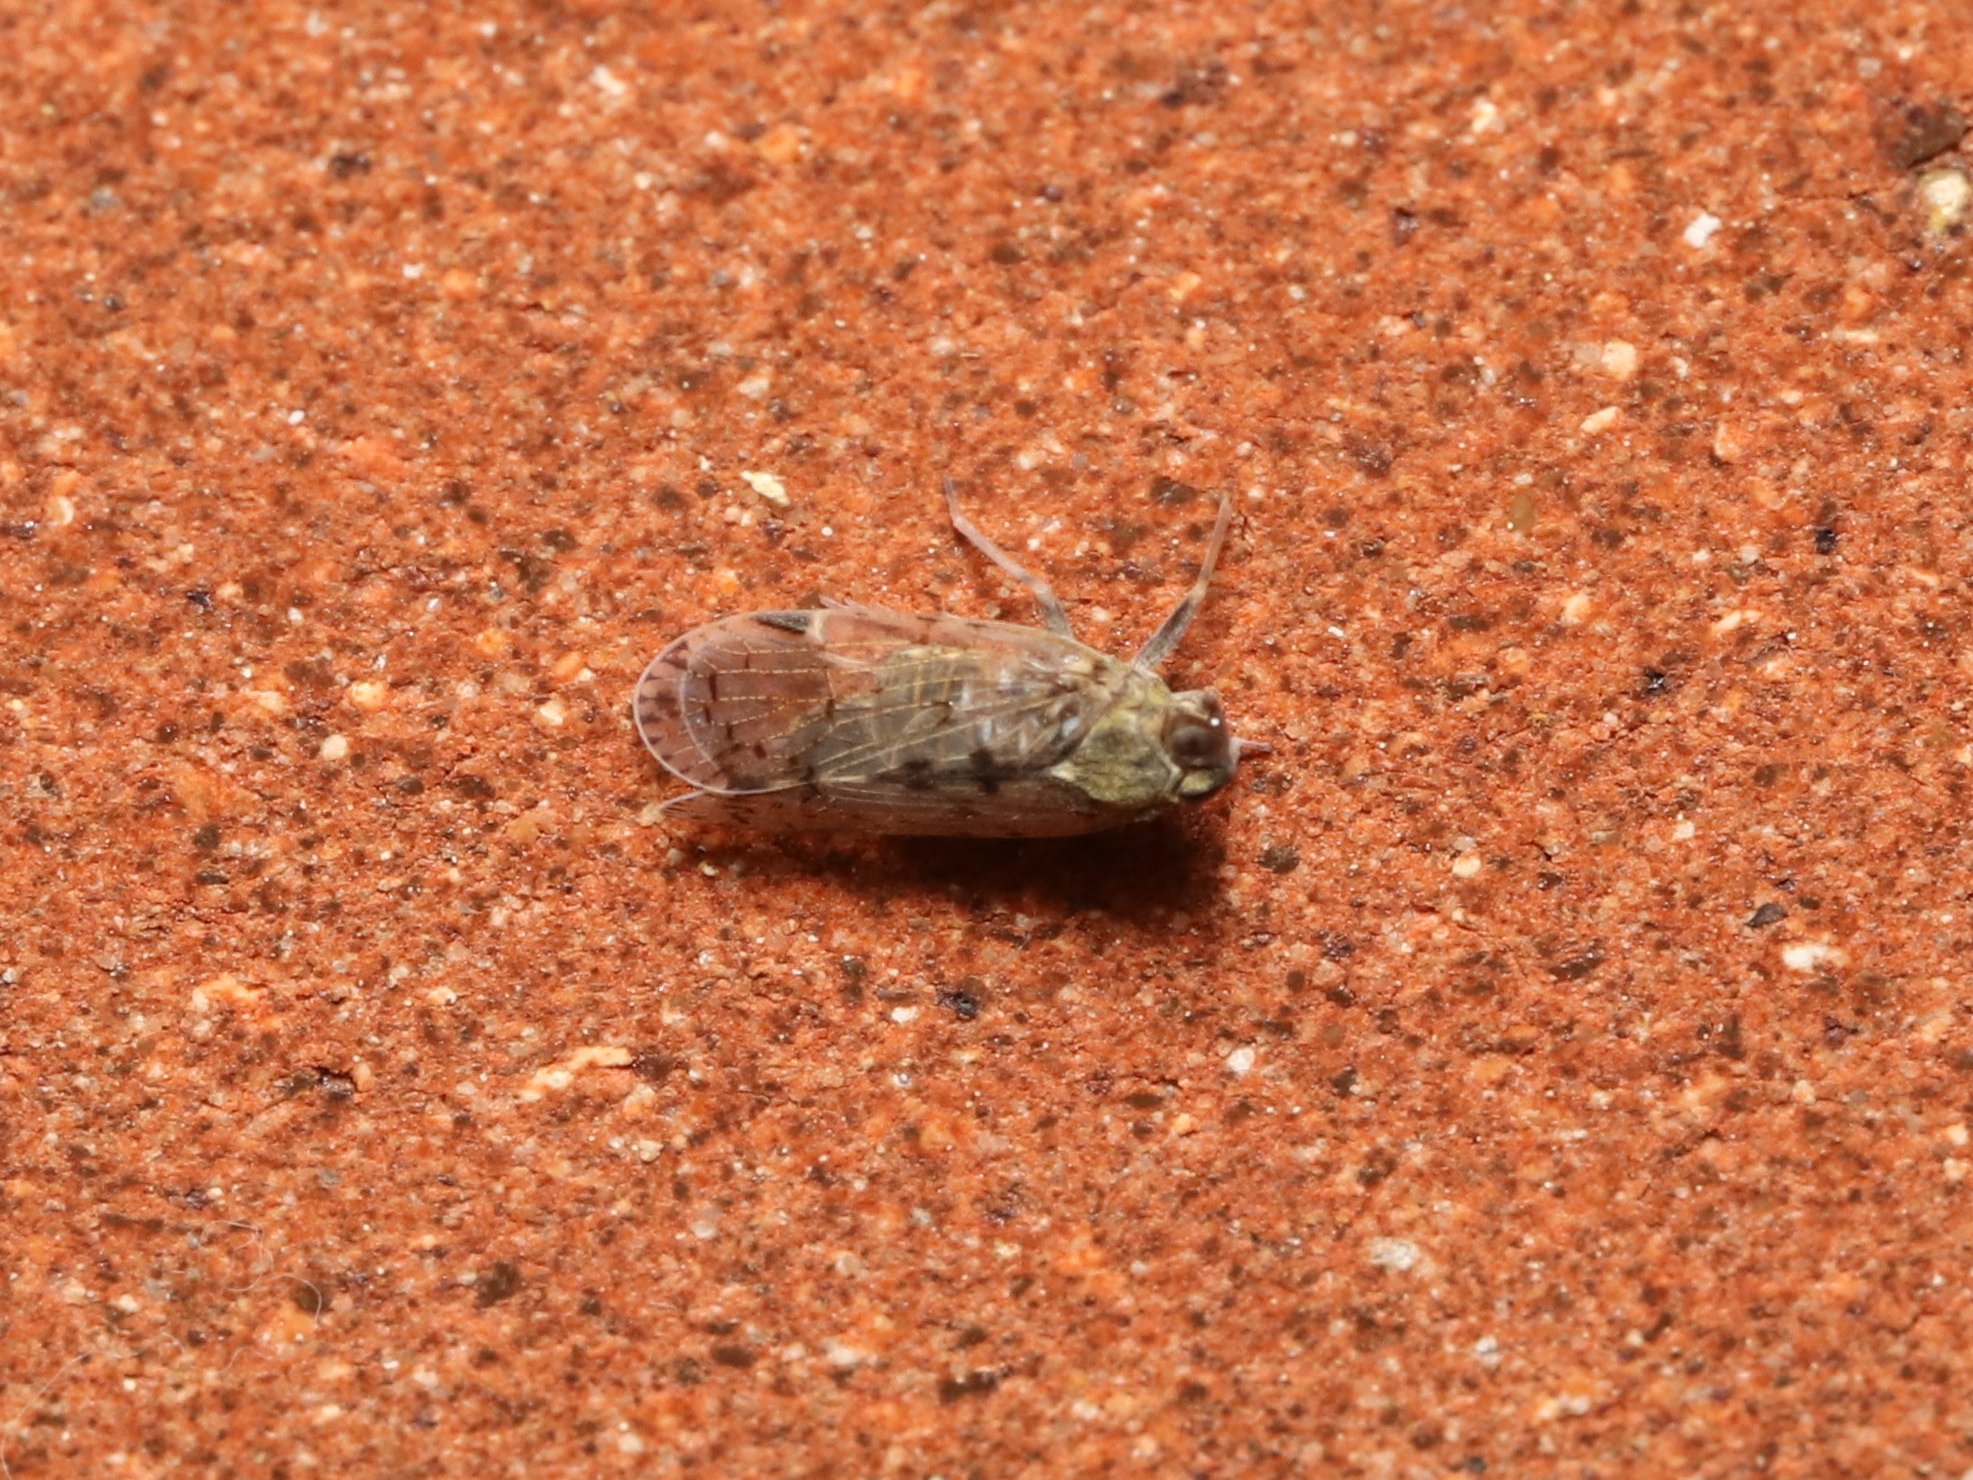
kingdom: Animalia
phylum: Arthropoda
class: Insecta
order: Hemiptera
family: Cixiidae
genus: Melanoliarus
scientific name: Melanoliarus placitus
